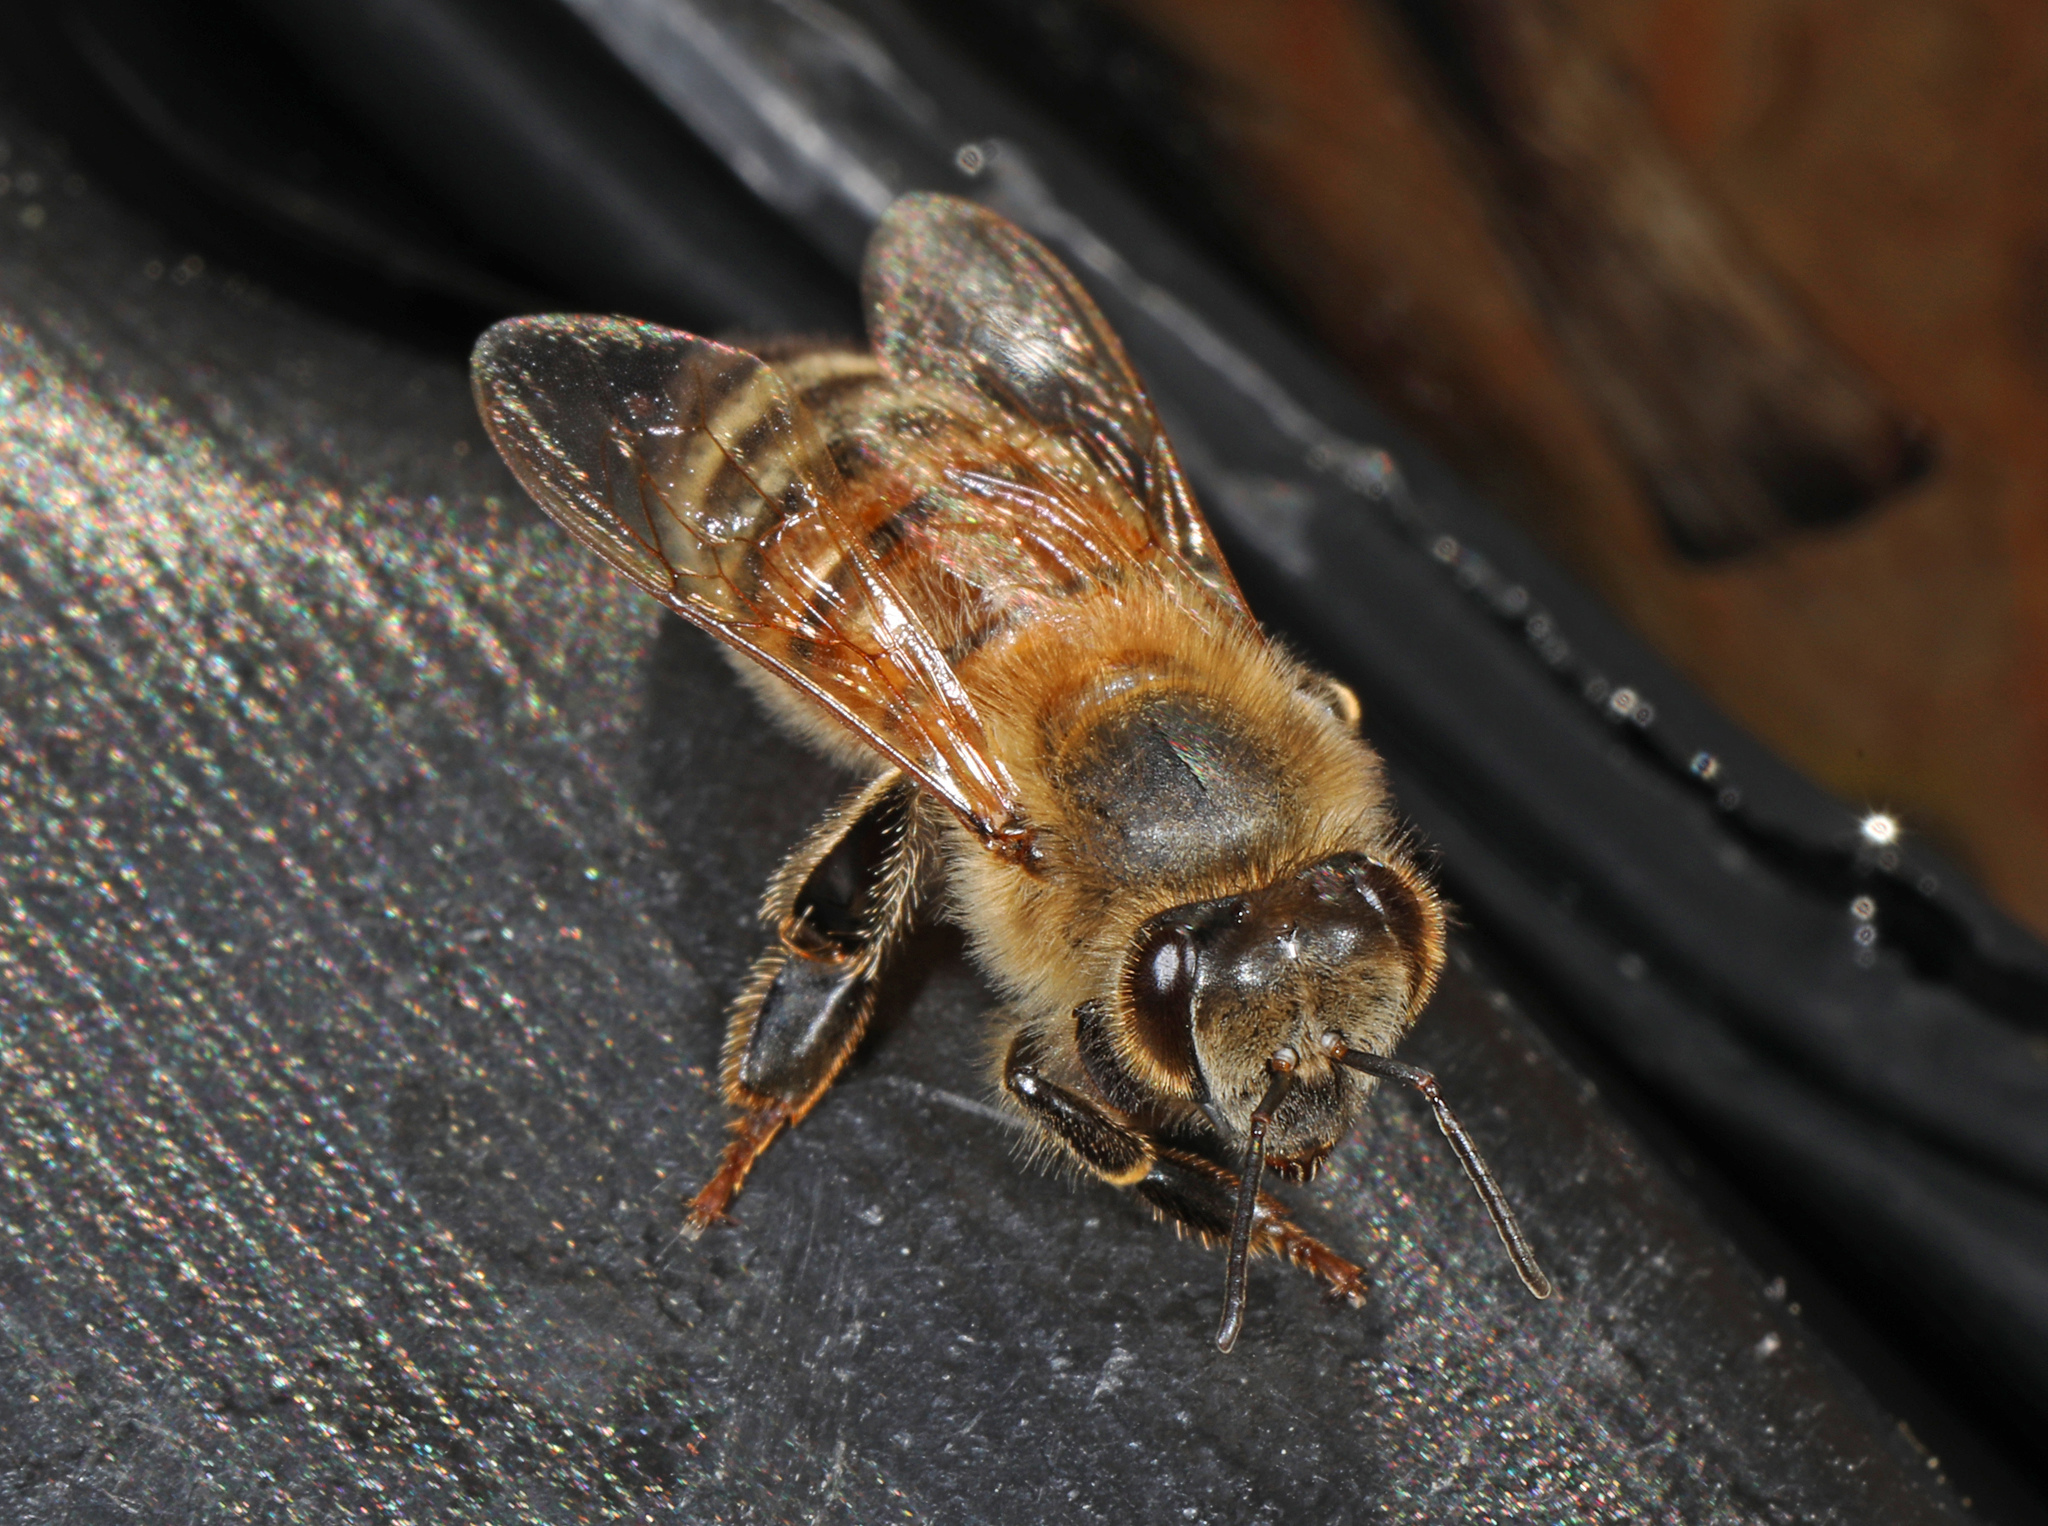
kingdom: Animalia
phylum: Arthropoda
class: Insecta
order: Hymenoptera
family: Apidae
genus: Apis
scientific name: Apis mellifera
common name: Honey bee
